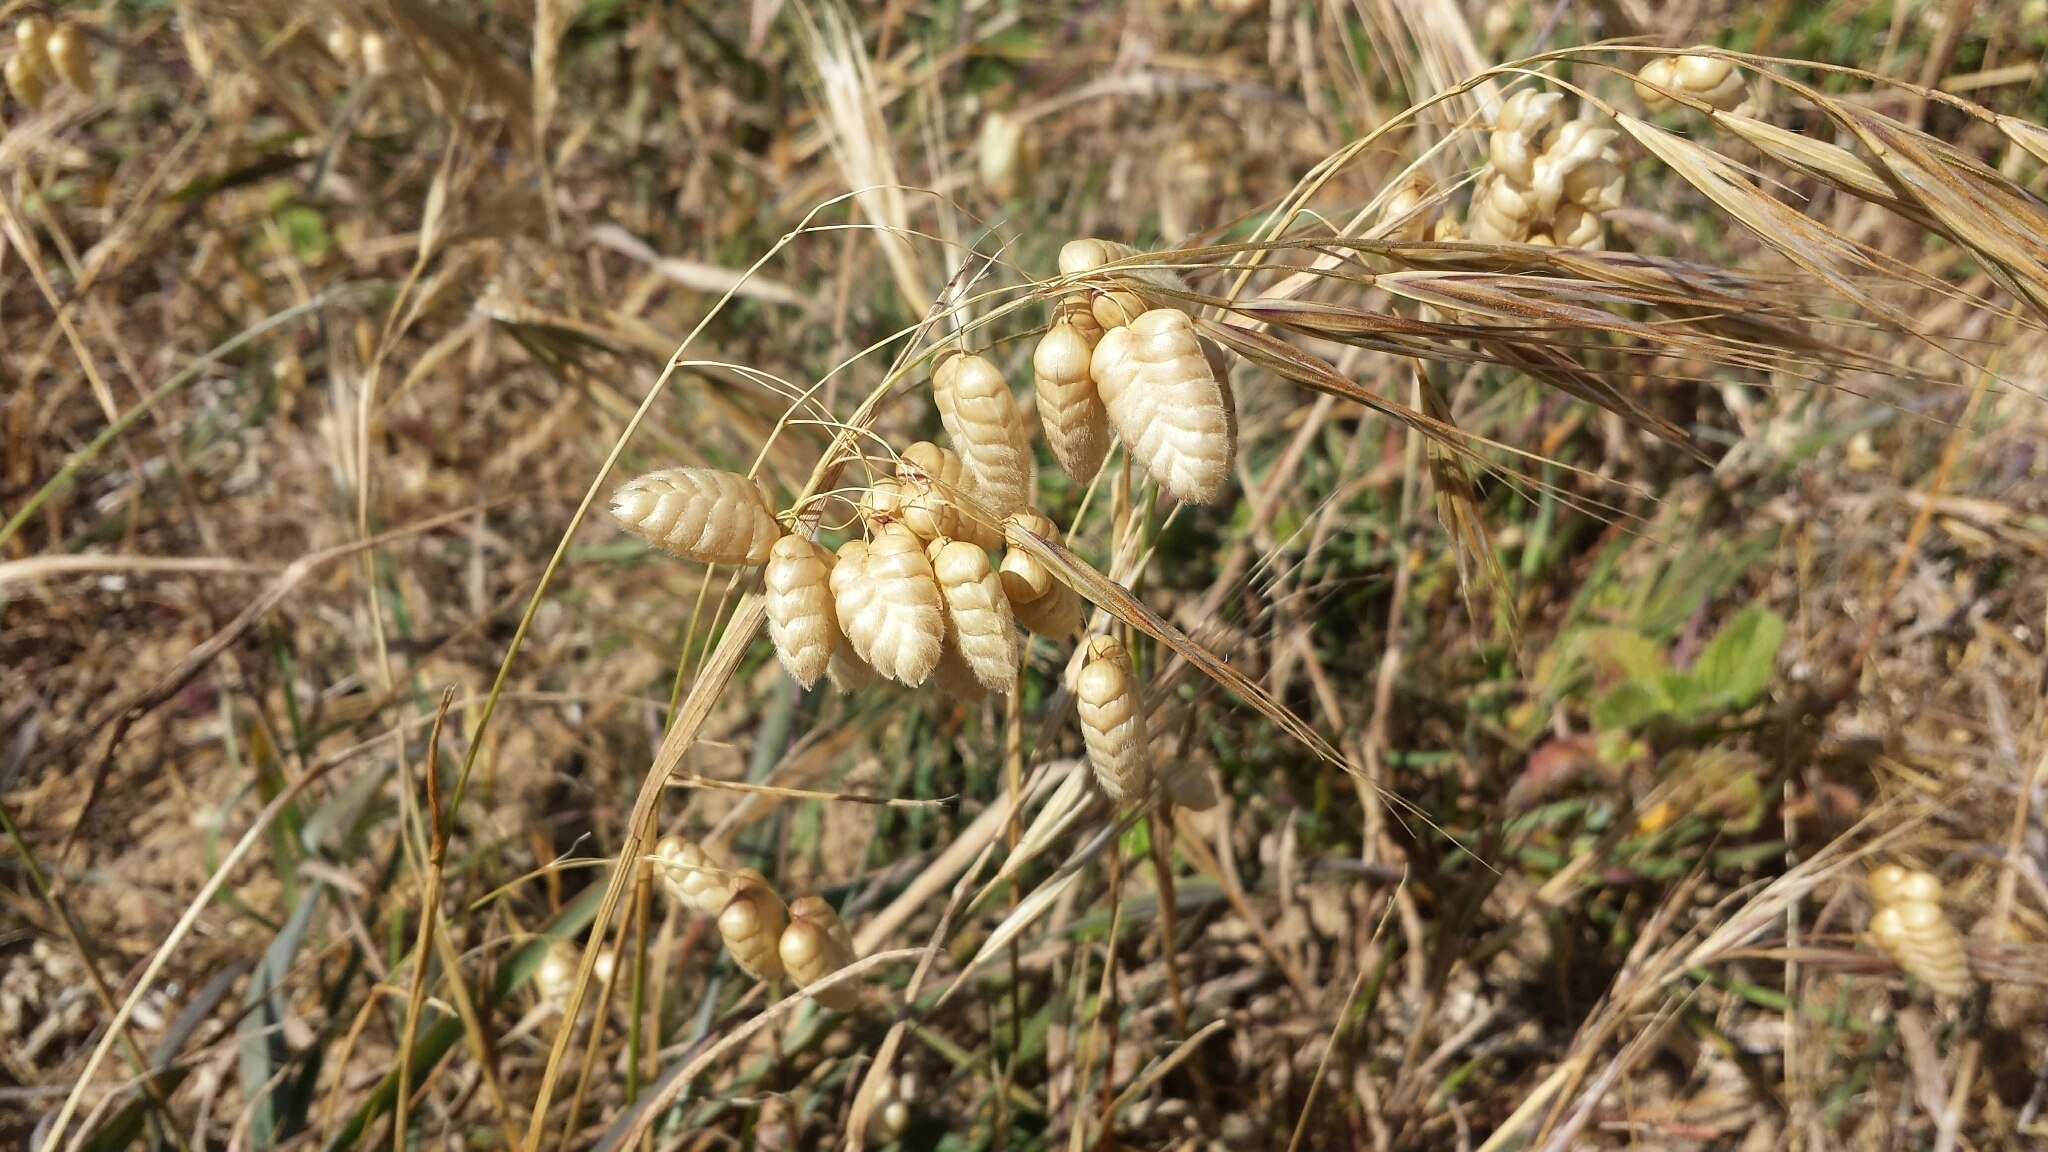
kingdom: Plantae
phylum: Tracheophyta
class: Liliopsida
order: Poales
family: Poaceae
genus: Briza
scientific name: Briza maxima
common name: Big quakinggrass
